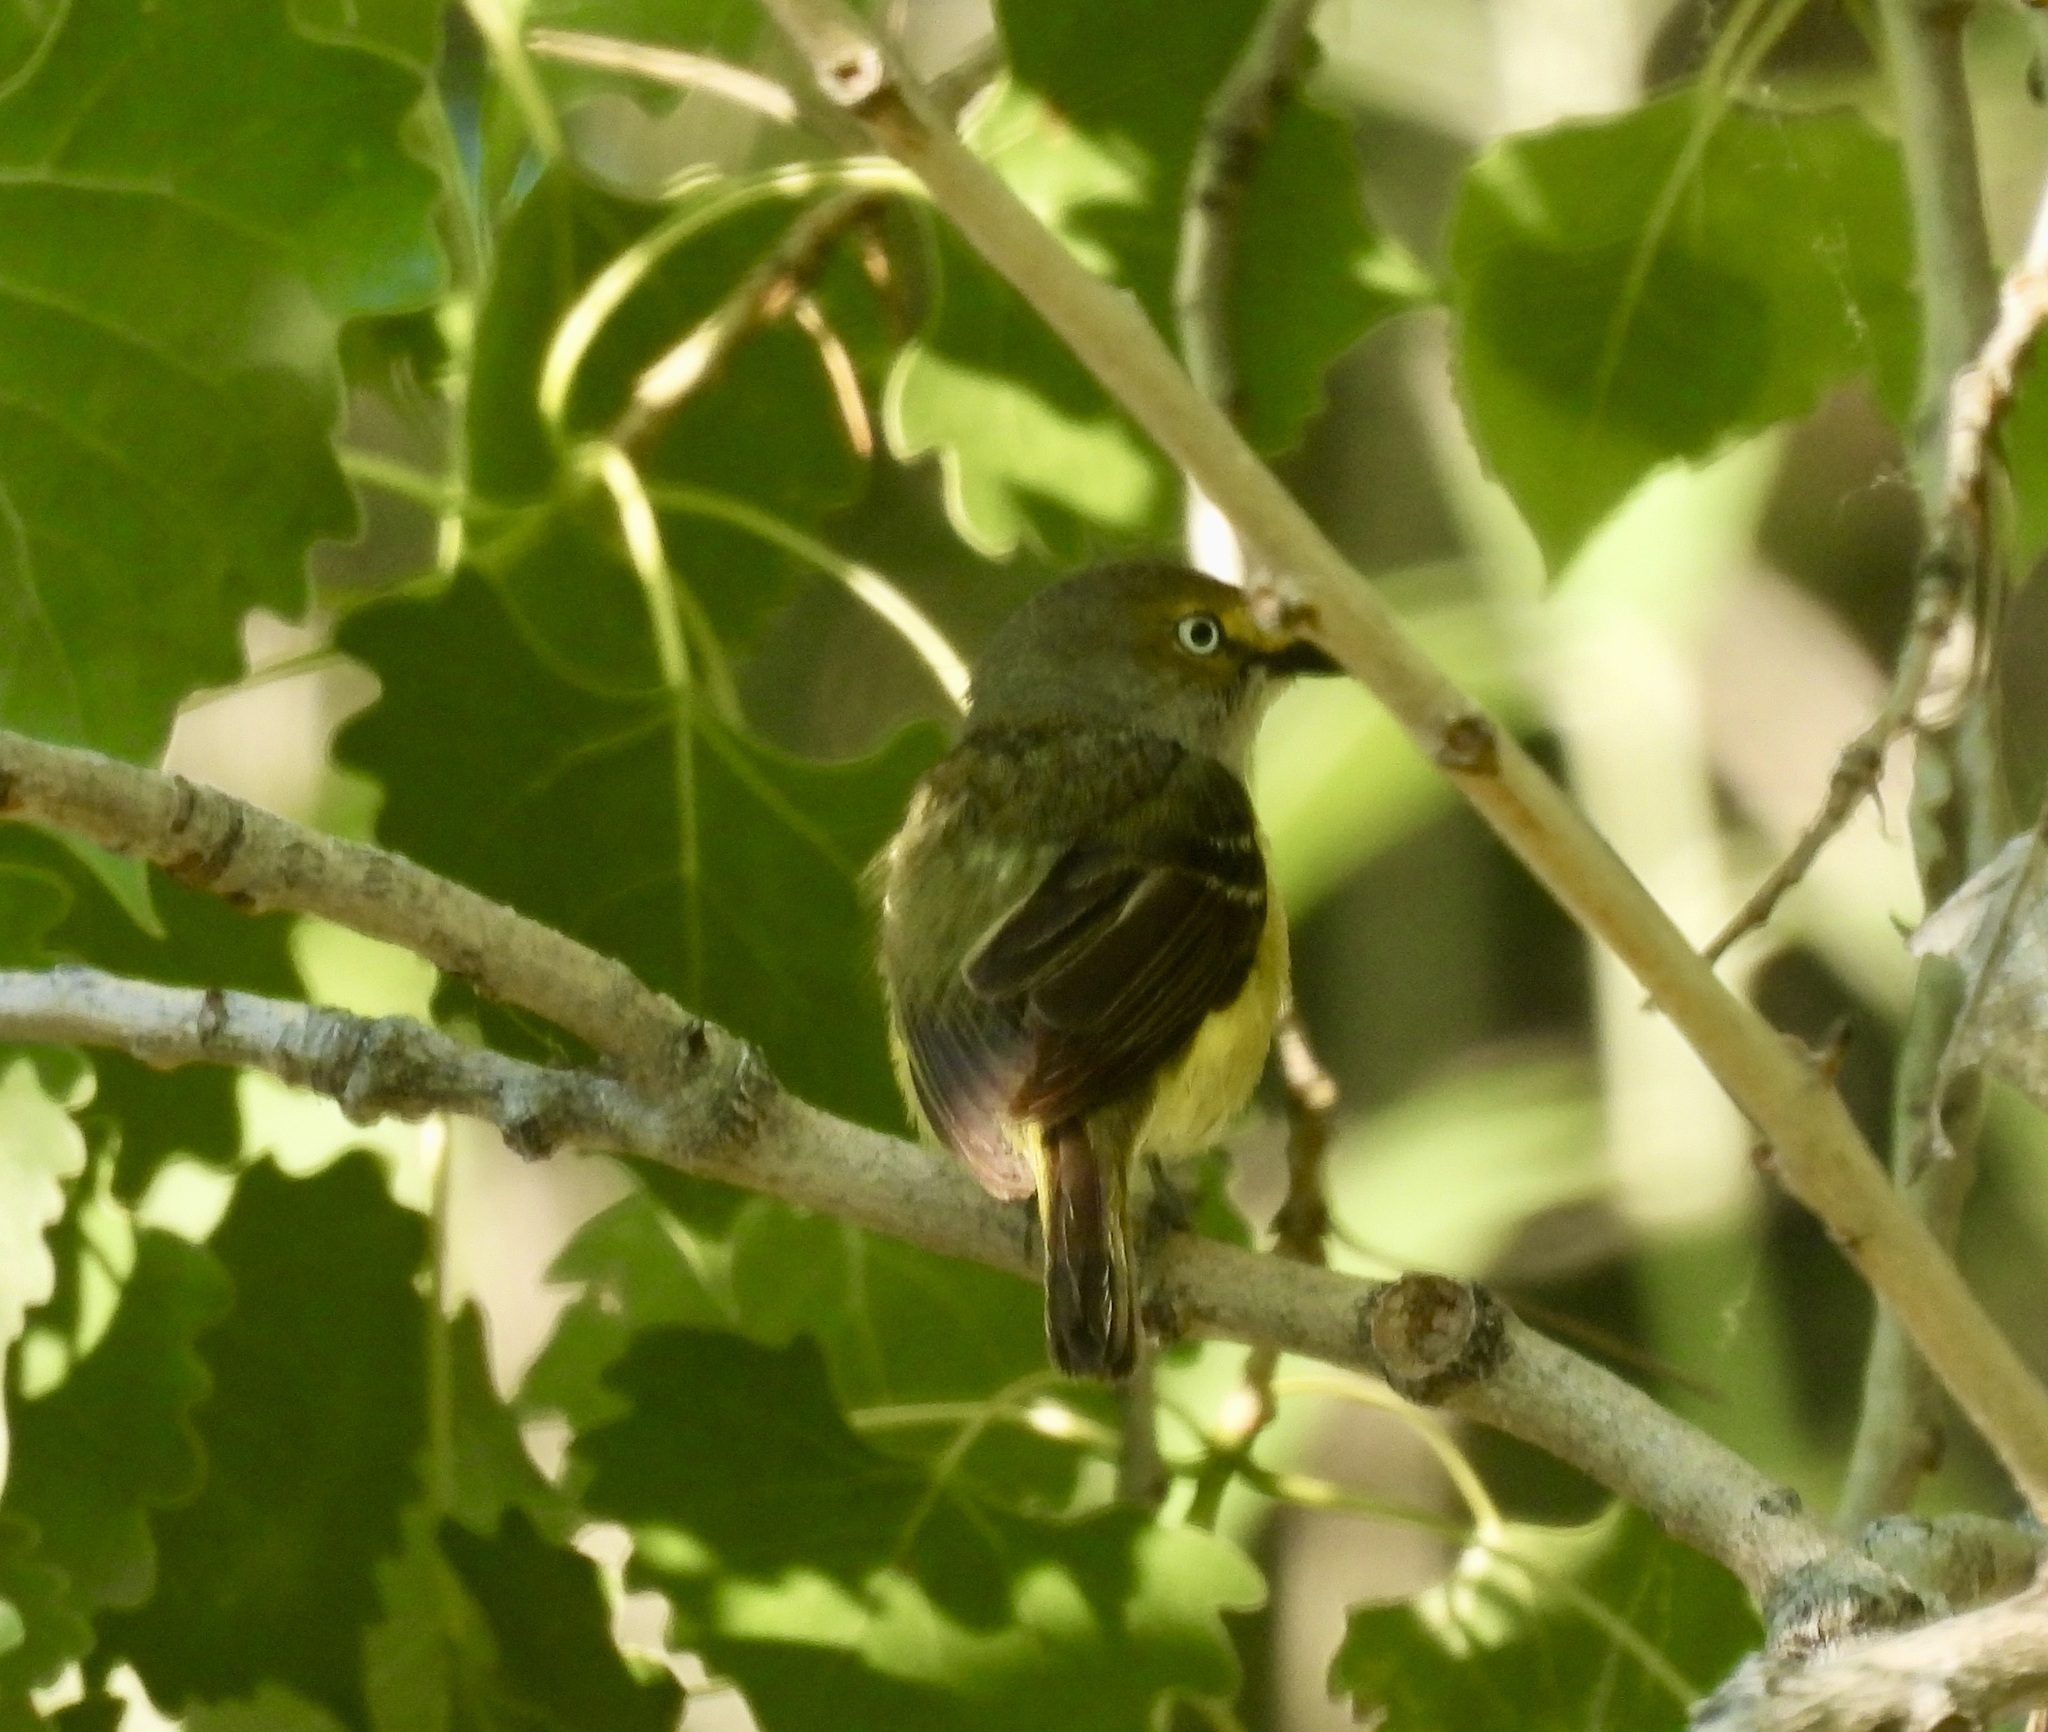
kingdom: Animalia
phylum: Chordata
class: Aves
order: Passeriformes
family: Vireonidae
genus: Vireo
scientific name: Vireo griseus
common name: White-eyed vireo
